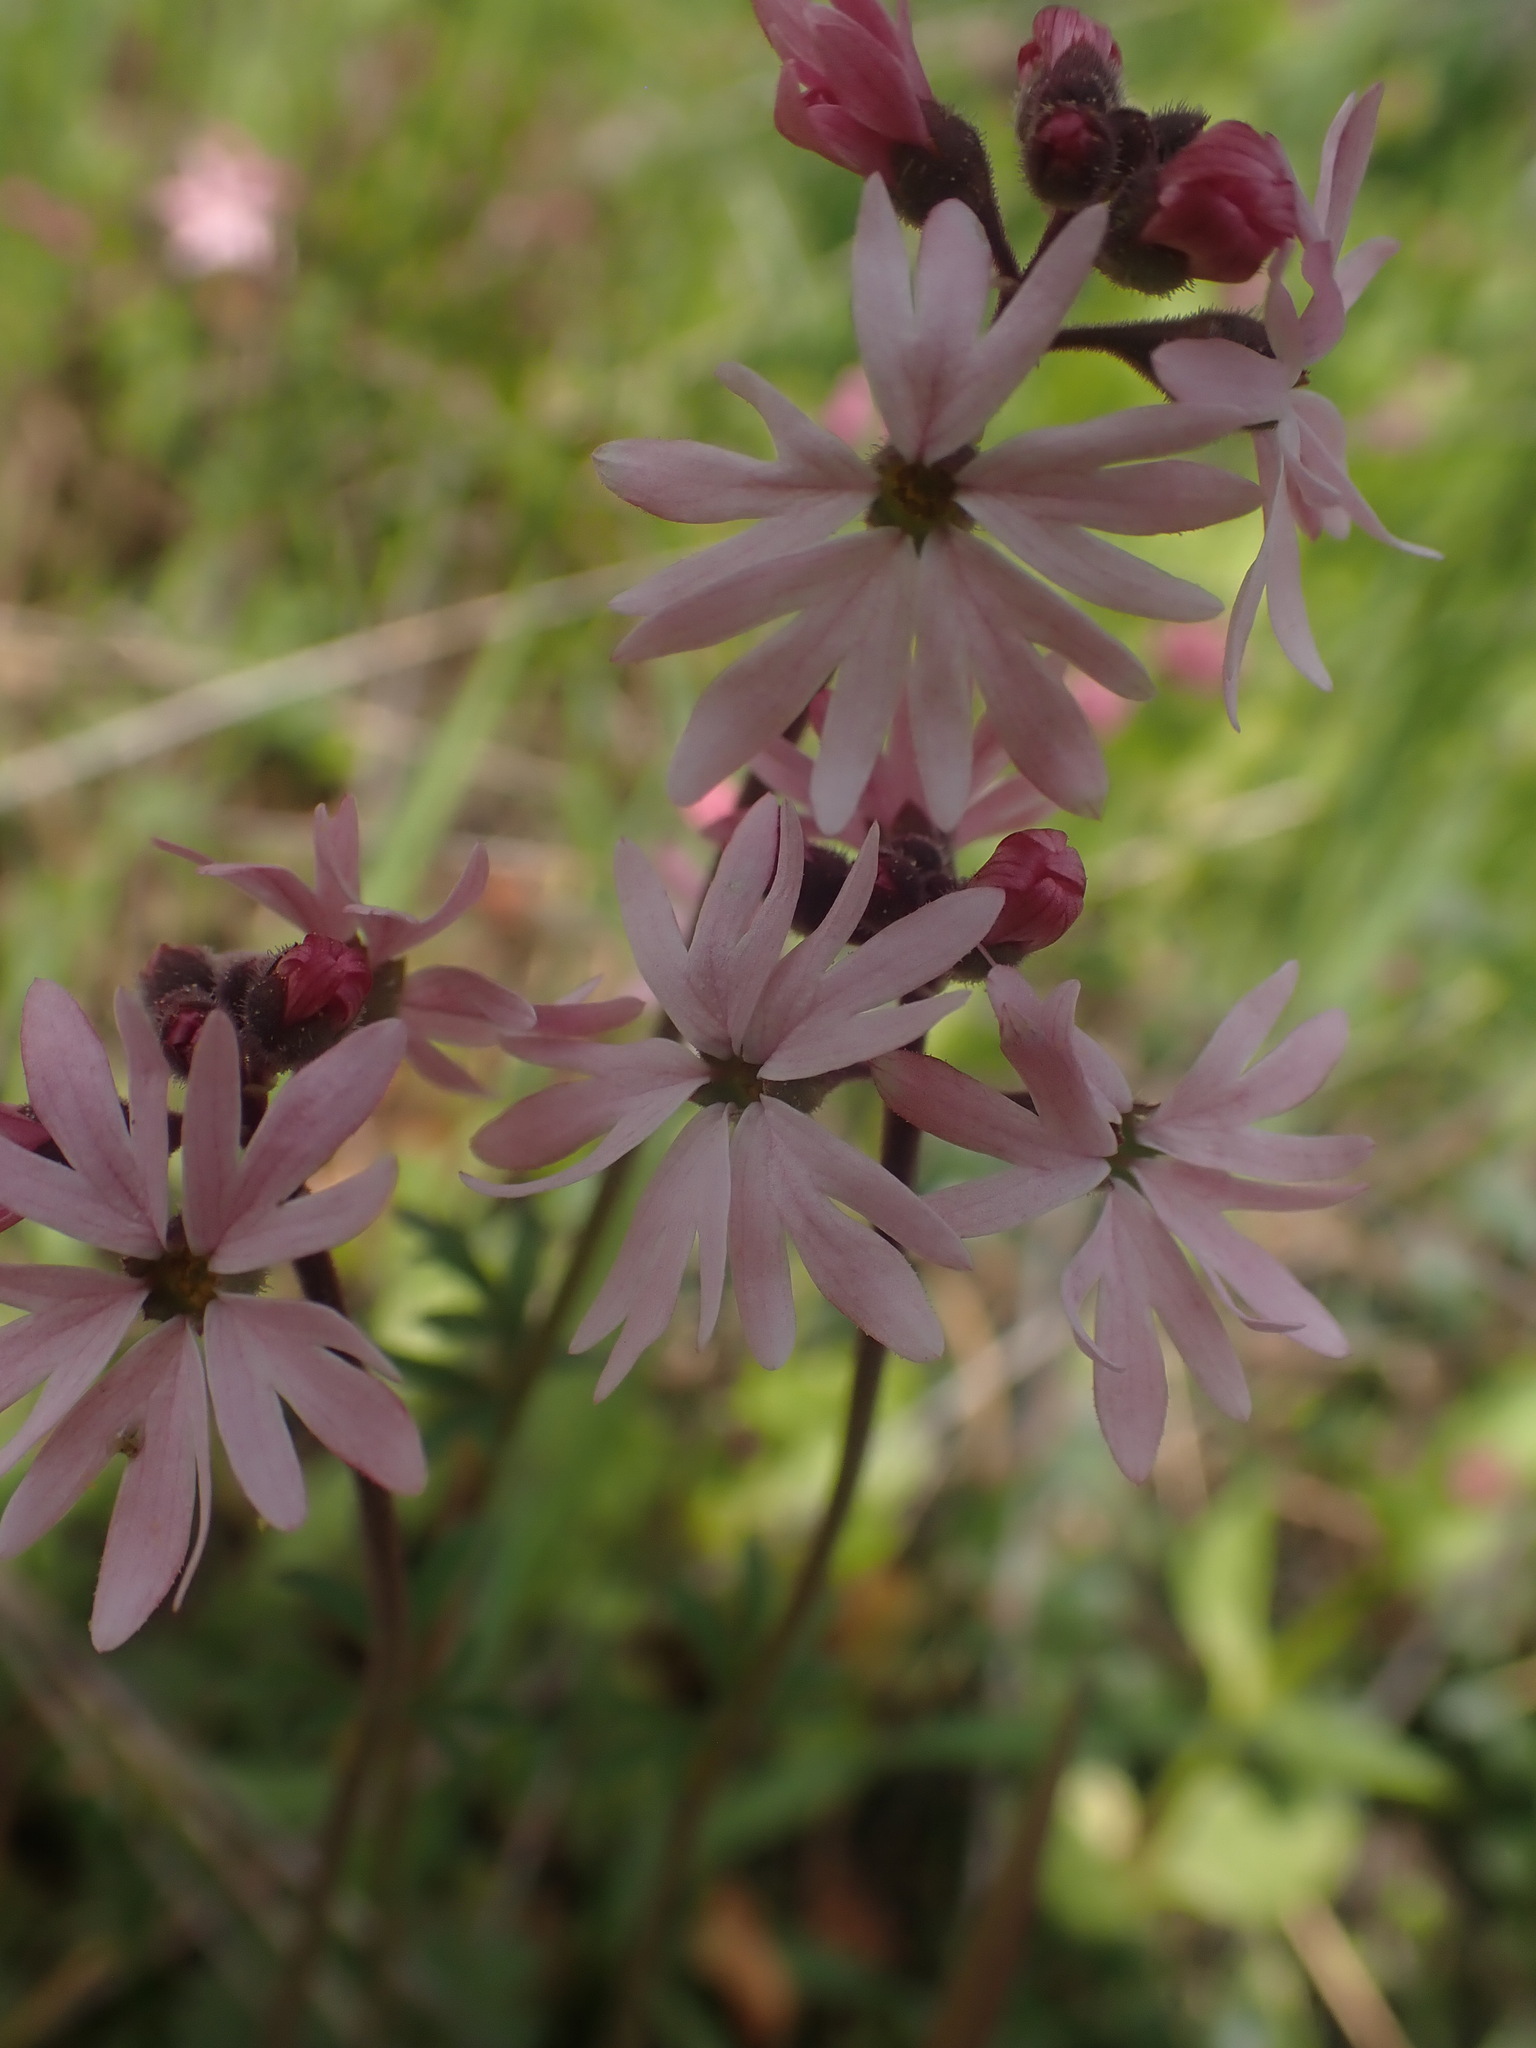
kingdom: Plantae
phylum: Tracheophyta
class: Magnoliopsida
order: Saxifragales
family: Saxifragaceae
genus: Lithophragma
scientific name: Lithophragma parviflorum
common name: Small-flowered fringe-cup
